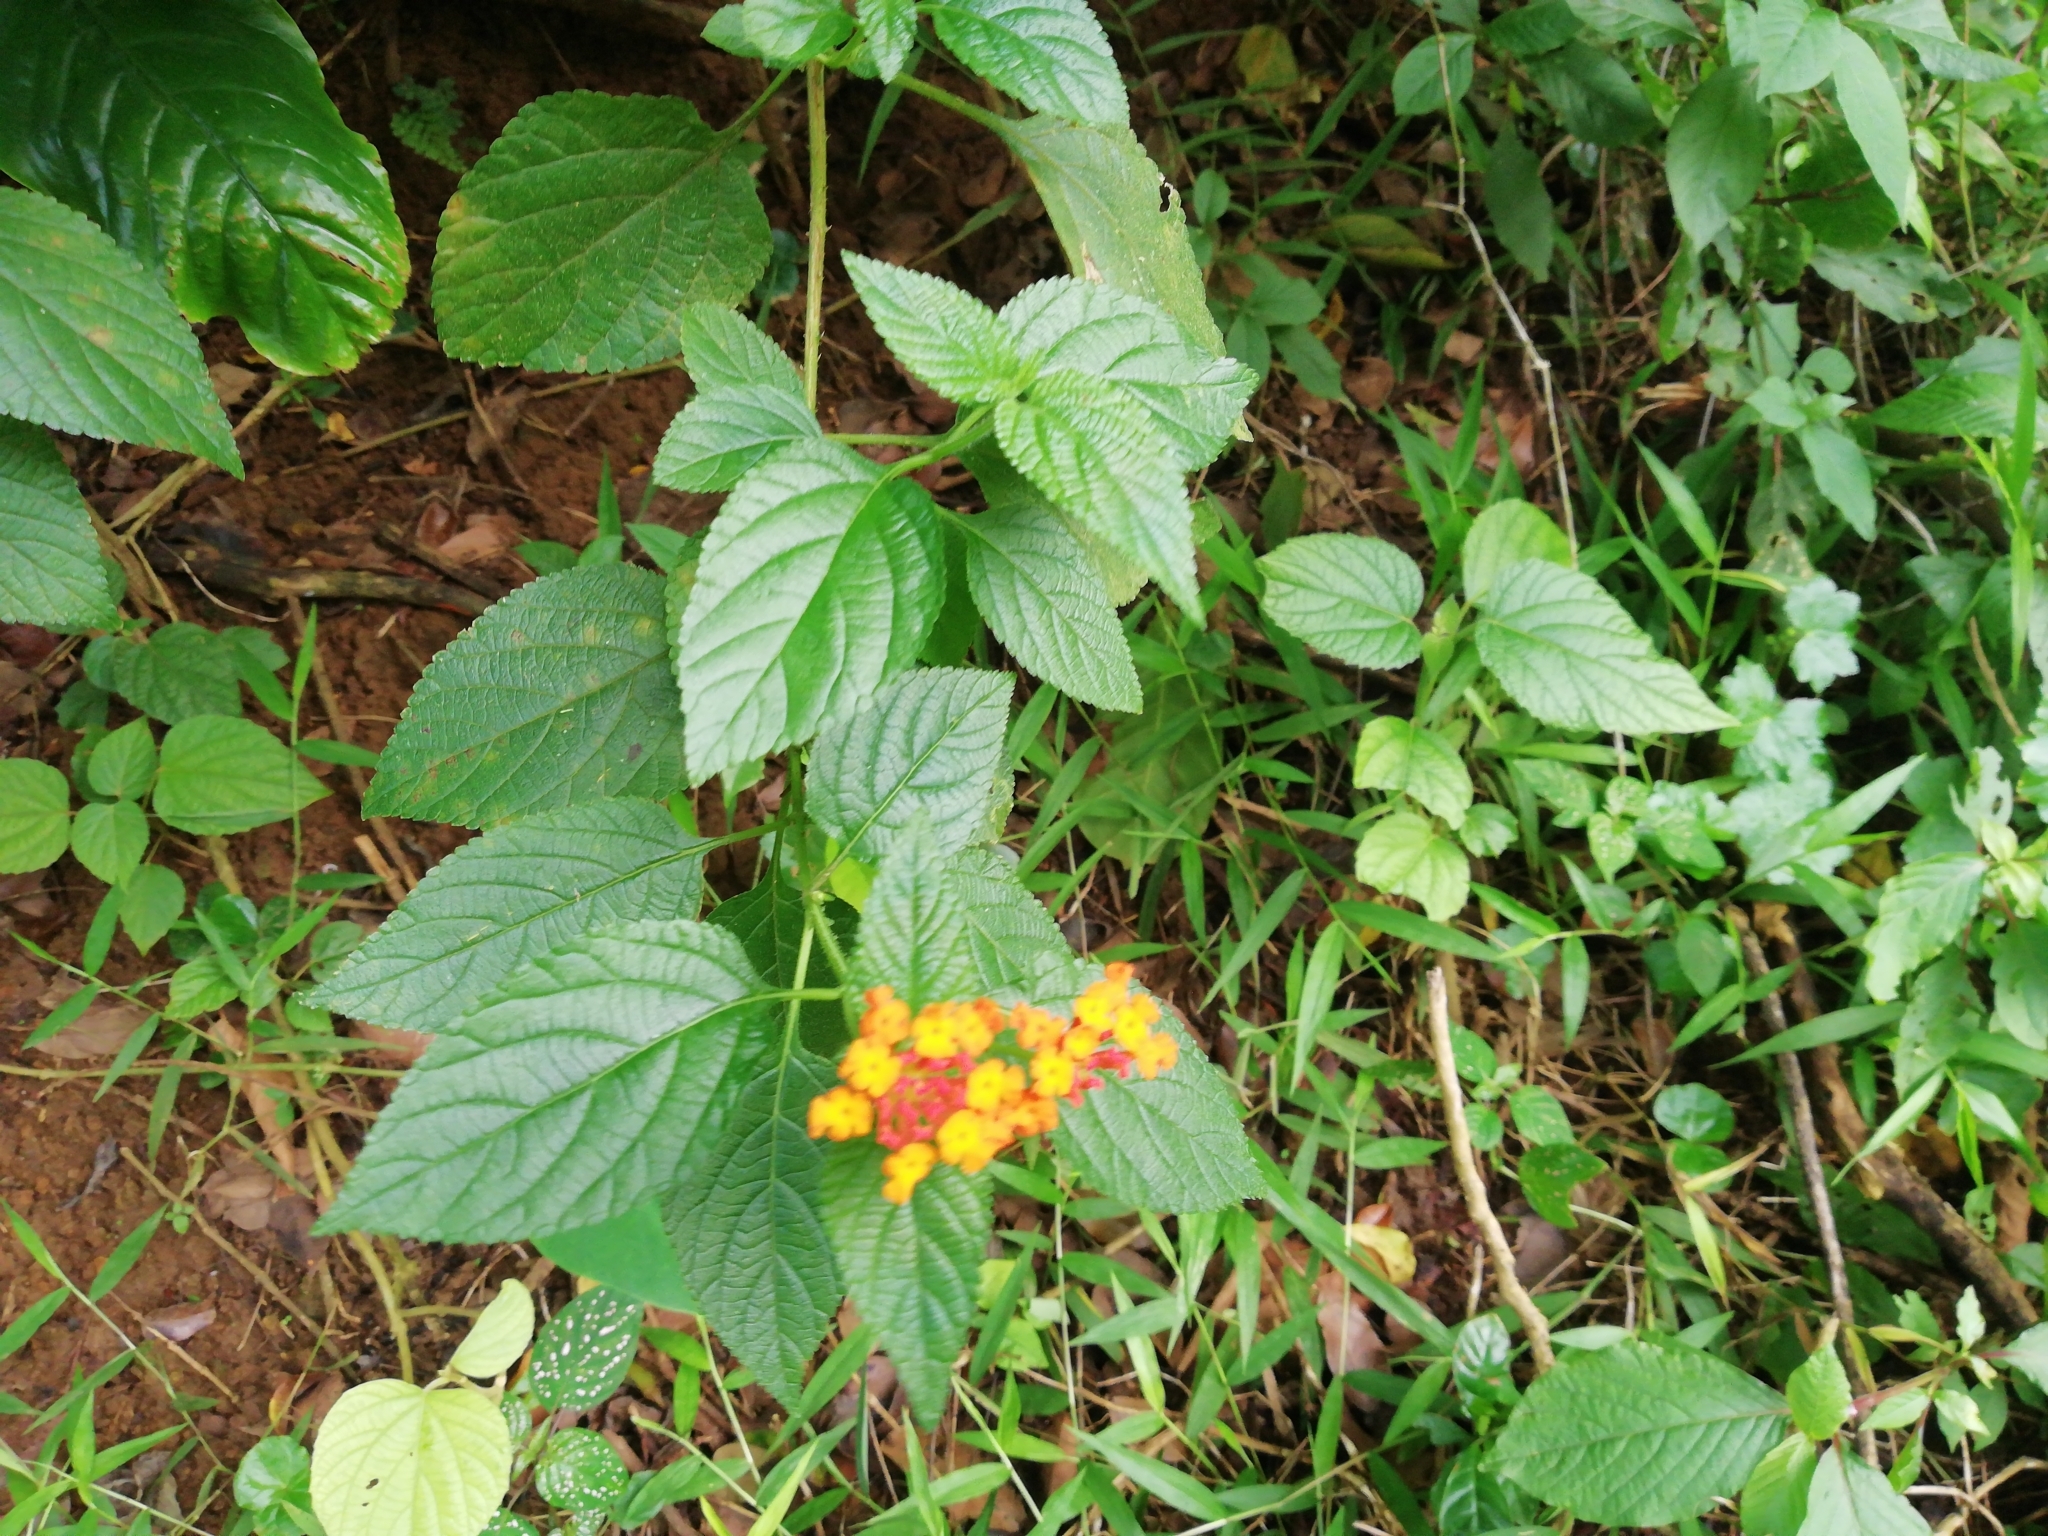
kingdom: Plantae
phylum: Tracheophyta
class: Magnoliopsida
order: Lamiales
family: Verbenaceae
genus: Lantana
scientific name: Lantana camara
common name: Lantana
